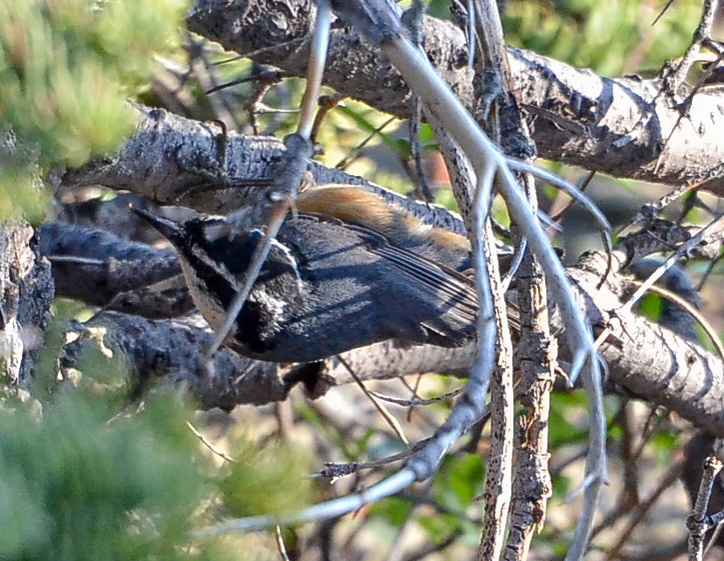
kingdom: Animalia
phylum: Chordata
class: Aves
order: Passeriformes
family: Sittidae
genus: Sitta
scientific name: Sitta canadensis
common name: Red-breasted nuthatch
